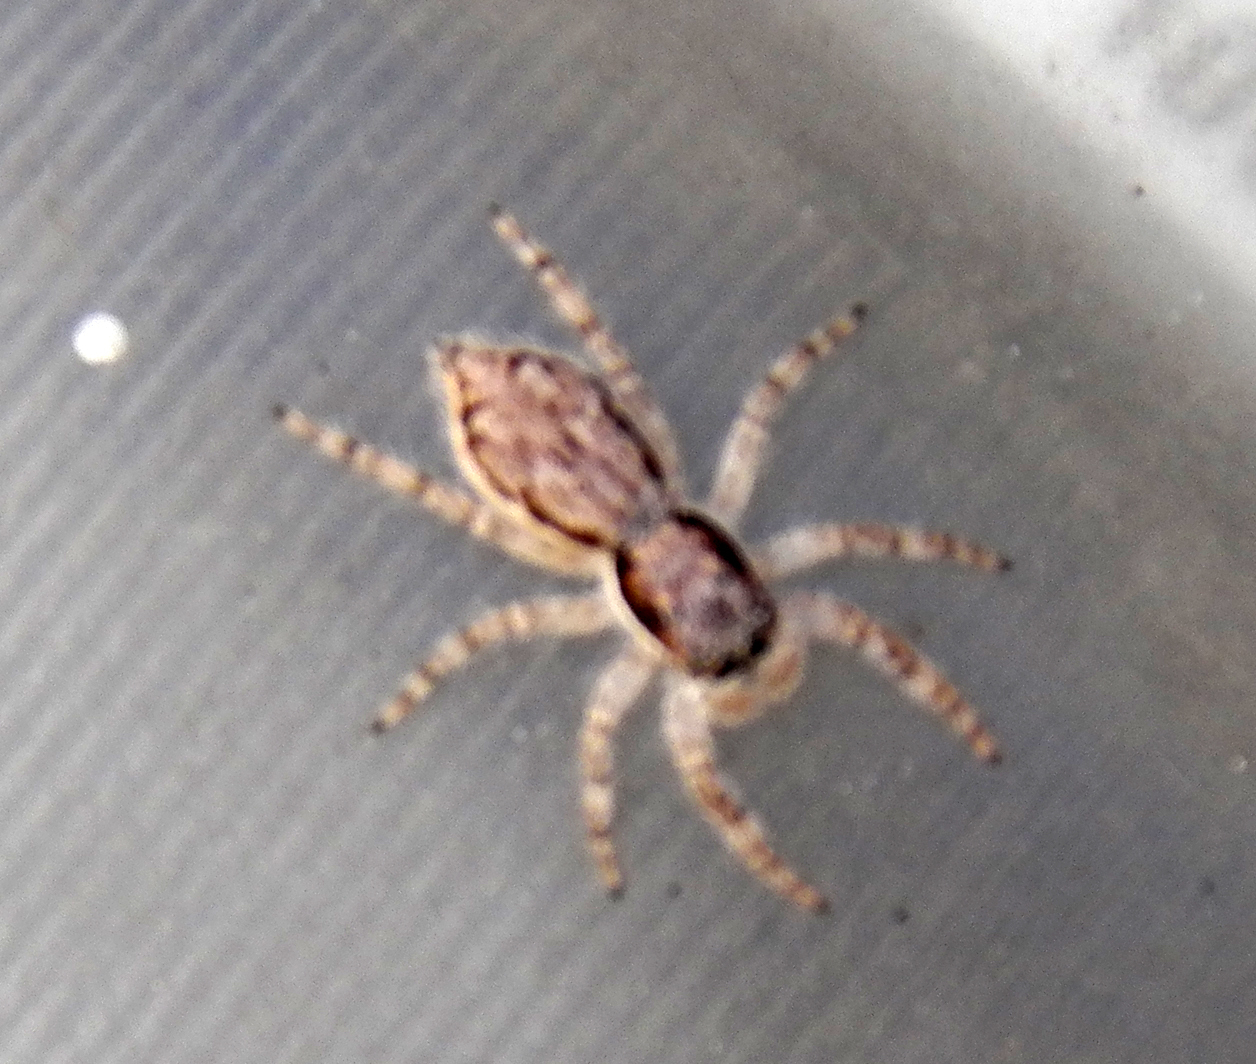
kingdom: Animalia
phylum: Arthropoda
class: Arachnida
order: Araneae
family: Salticidae
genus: Menemerus
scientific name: Menemerus bivittatus
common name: Gray wall jumper
